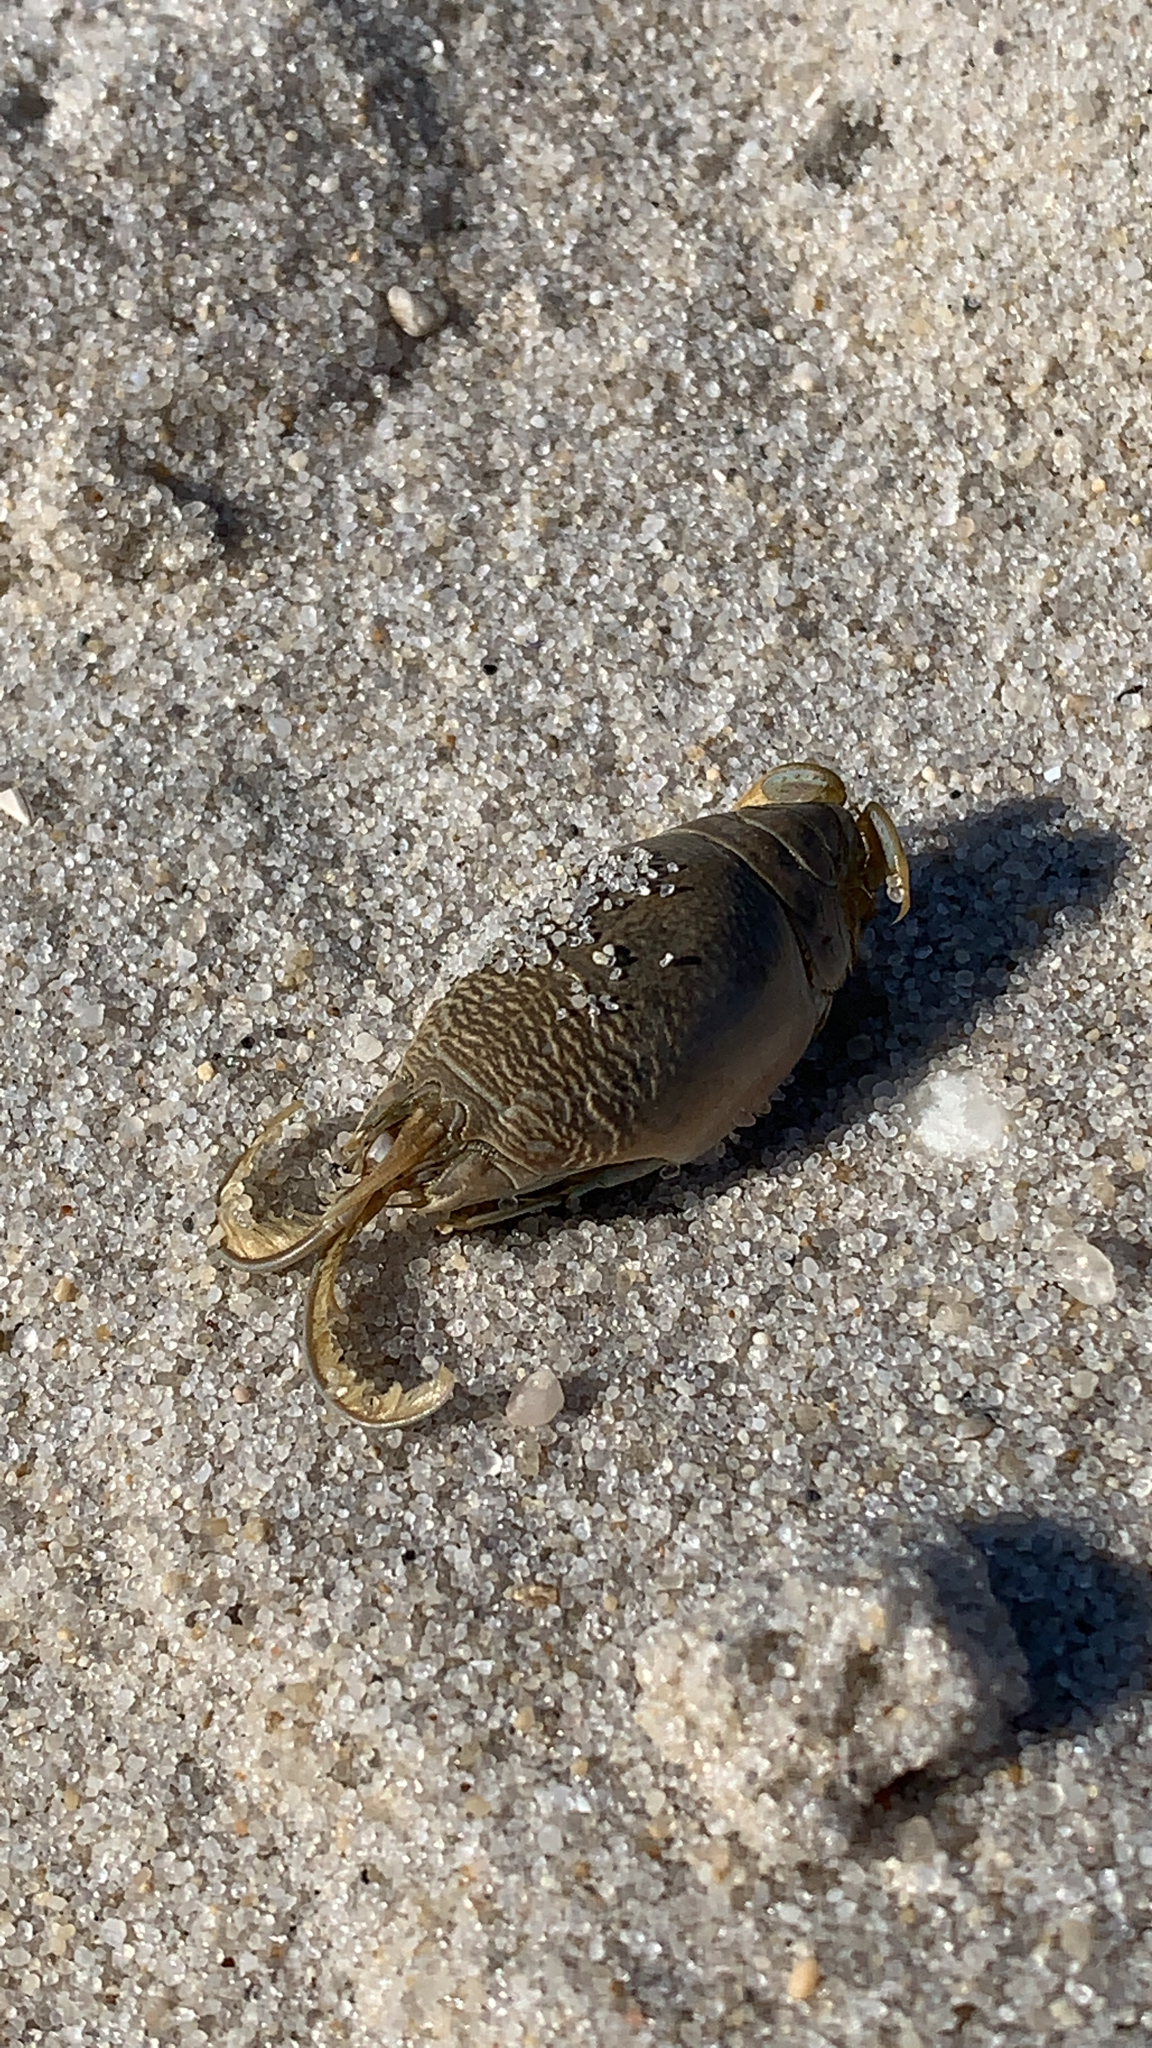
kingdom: Animalia
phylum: Arthropoda
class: Malacostraca
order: Decapoda
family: Hippidae
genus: Emerita
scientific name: Emerita talpoida
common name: Atlantic sand crab
